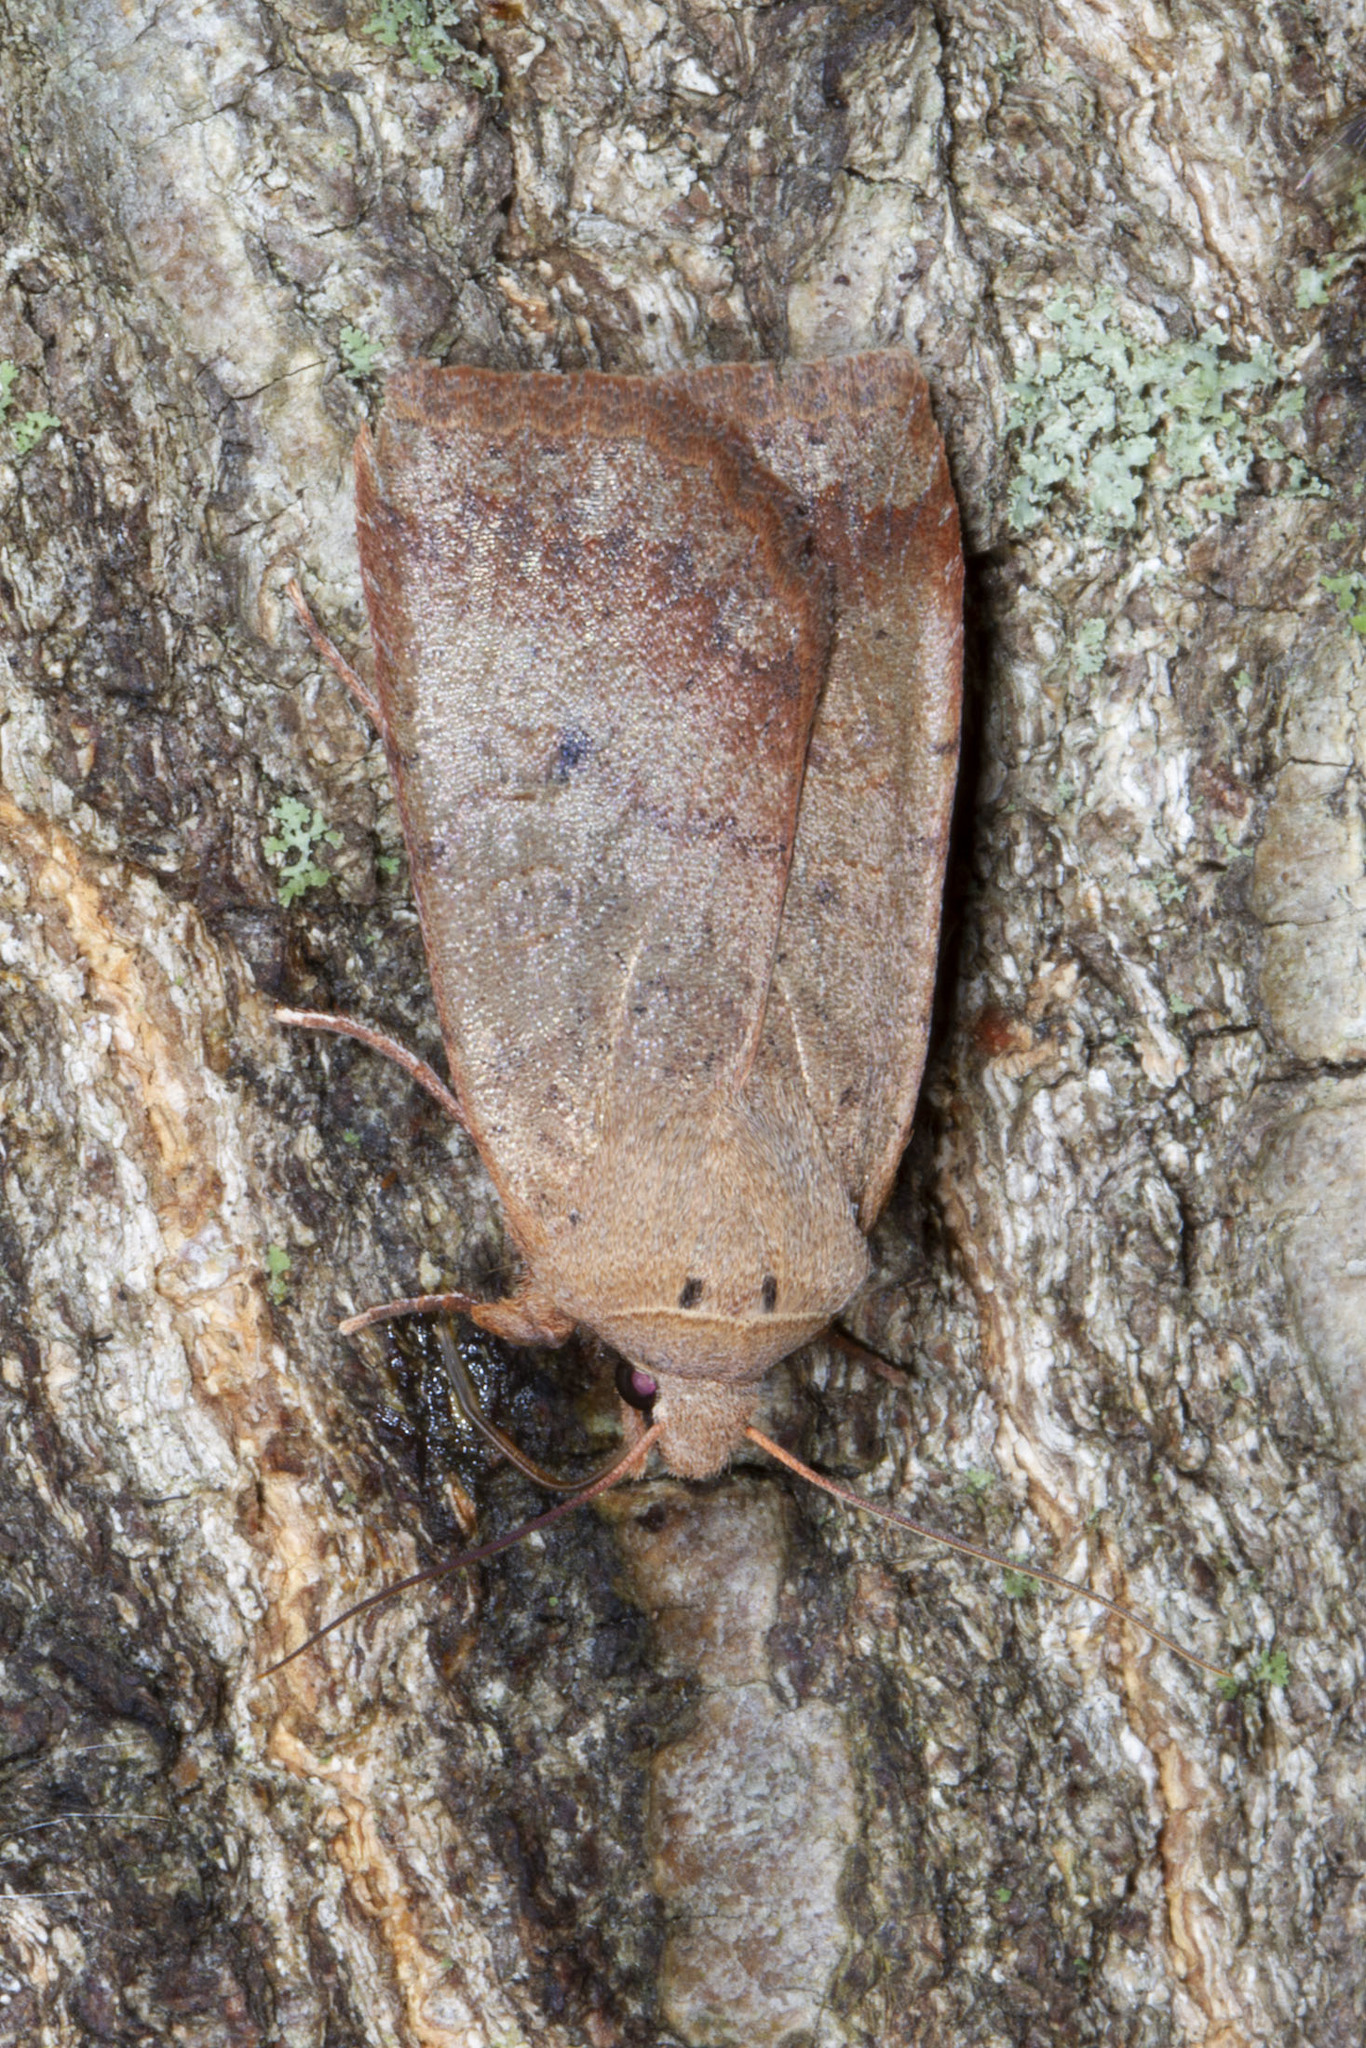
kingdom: Animalia
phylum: Arthropoda
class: Insecta
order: Lepidoptera
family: Noctuidae
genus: Sericaglaea
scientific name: Sericaglaea signata
